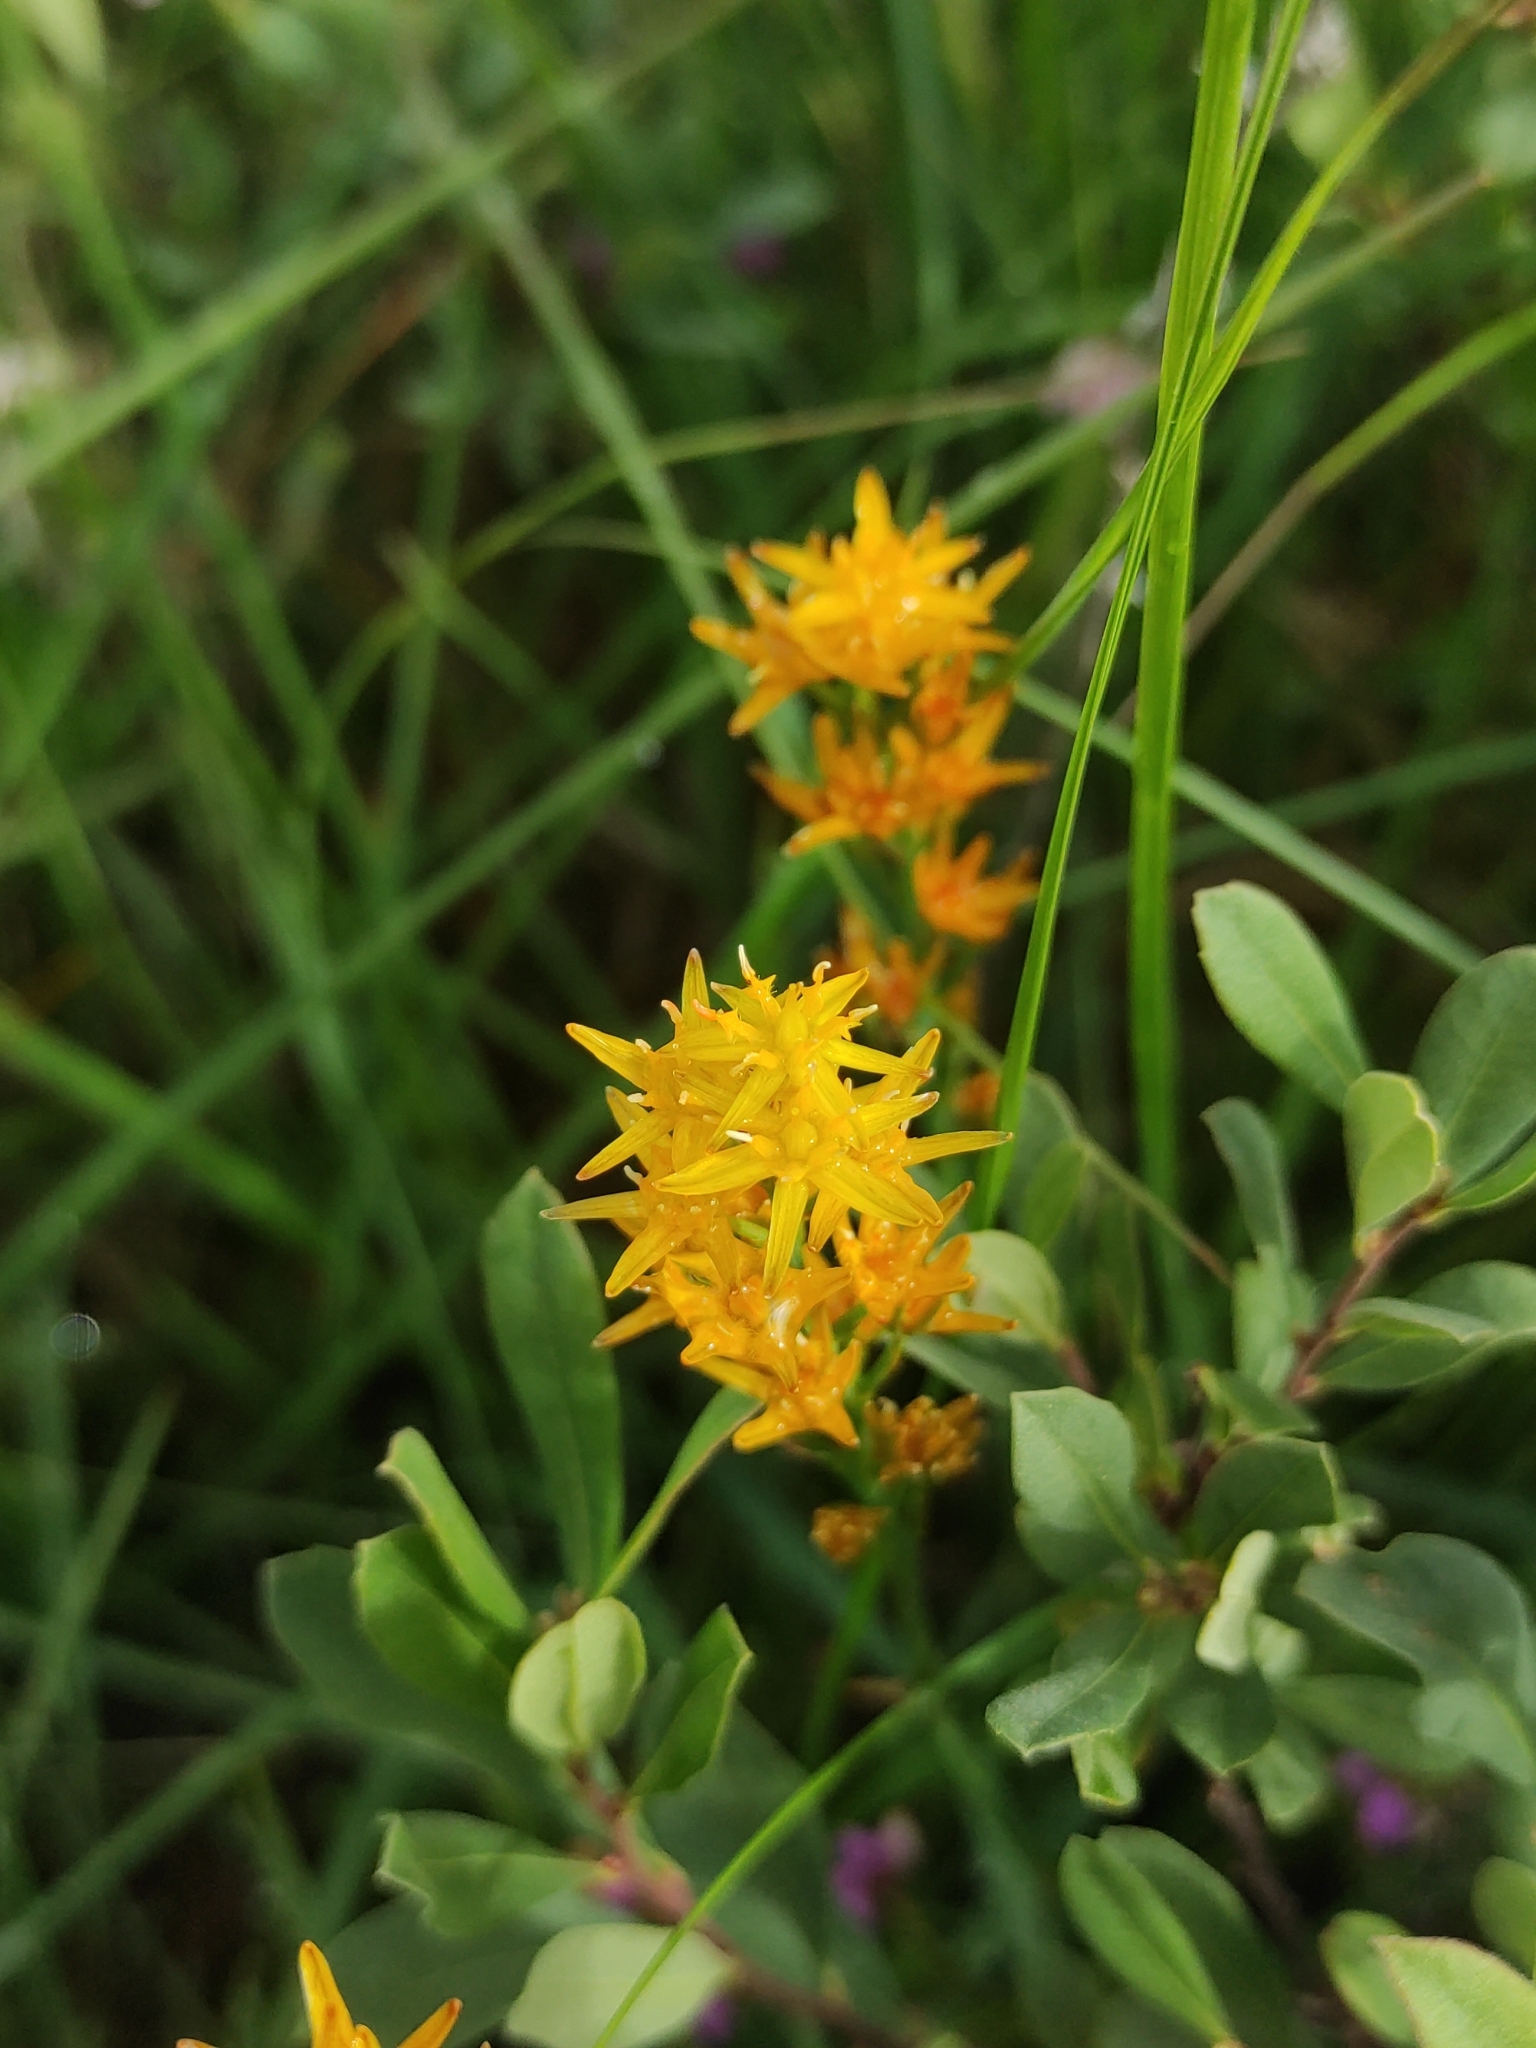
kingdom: Plantae
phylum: Tracheophyta
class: Liliopsida
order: Dioscoreales
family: Nartheciaceae
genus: Narthecium
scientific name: Narthecium ossifragum
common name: Bog asphodel
